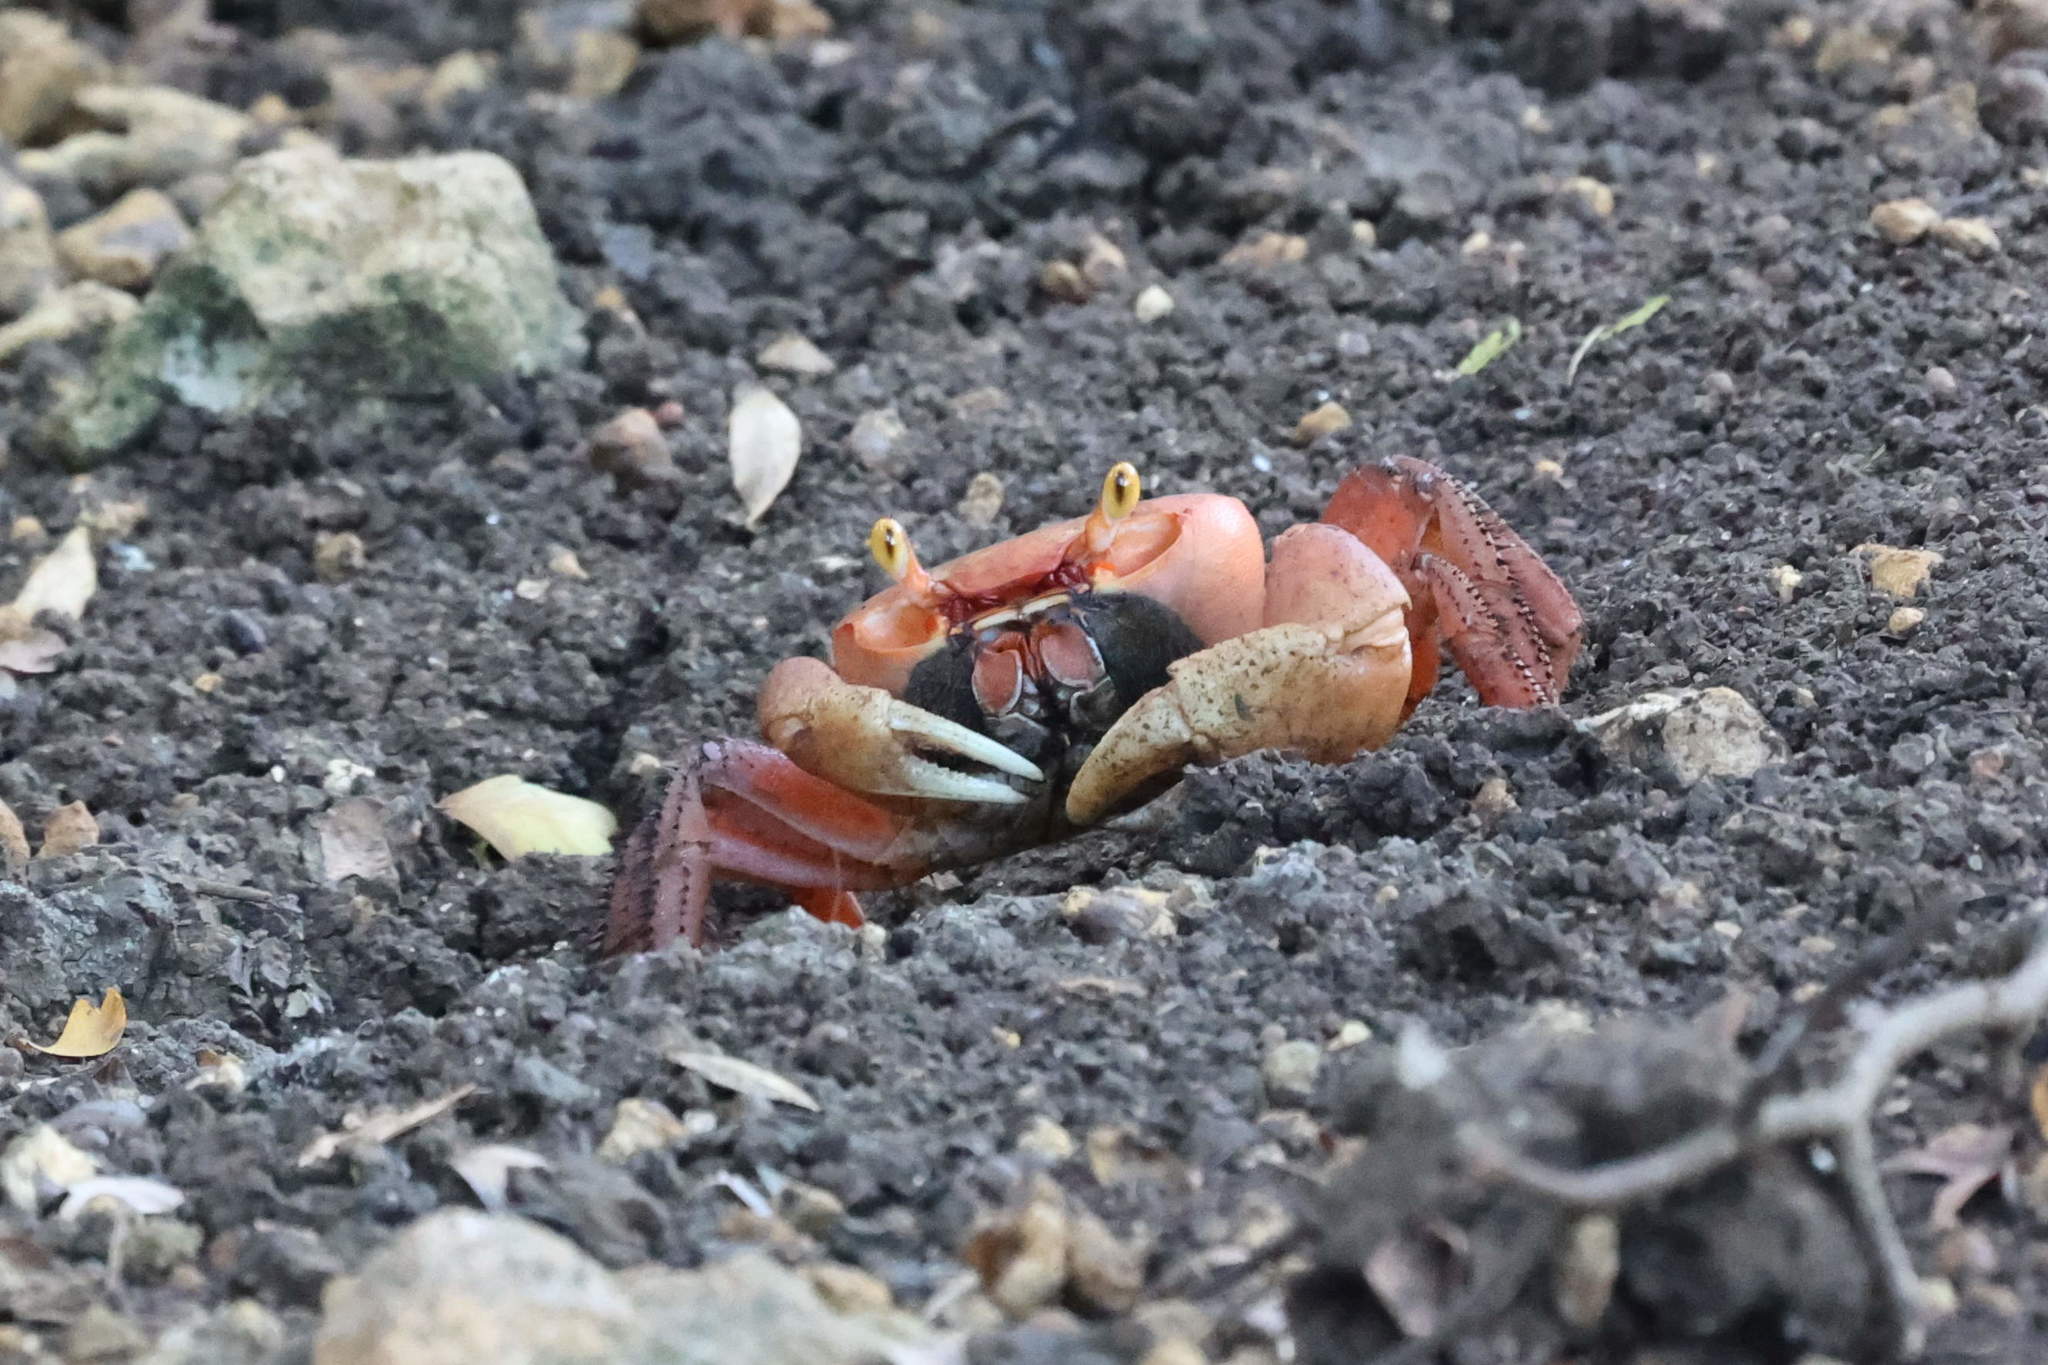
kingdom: Animalia
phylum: Arthropoda
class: Malacostraca
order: Decapoda
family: Gecarcinidae
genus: Cardisoma
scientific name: Cardisoma guanhumi
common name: Great land crab
